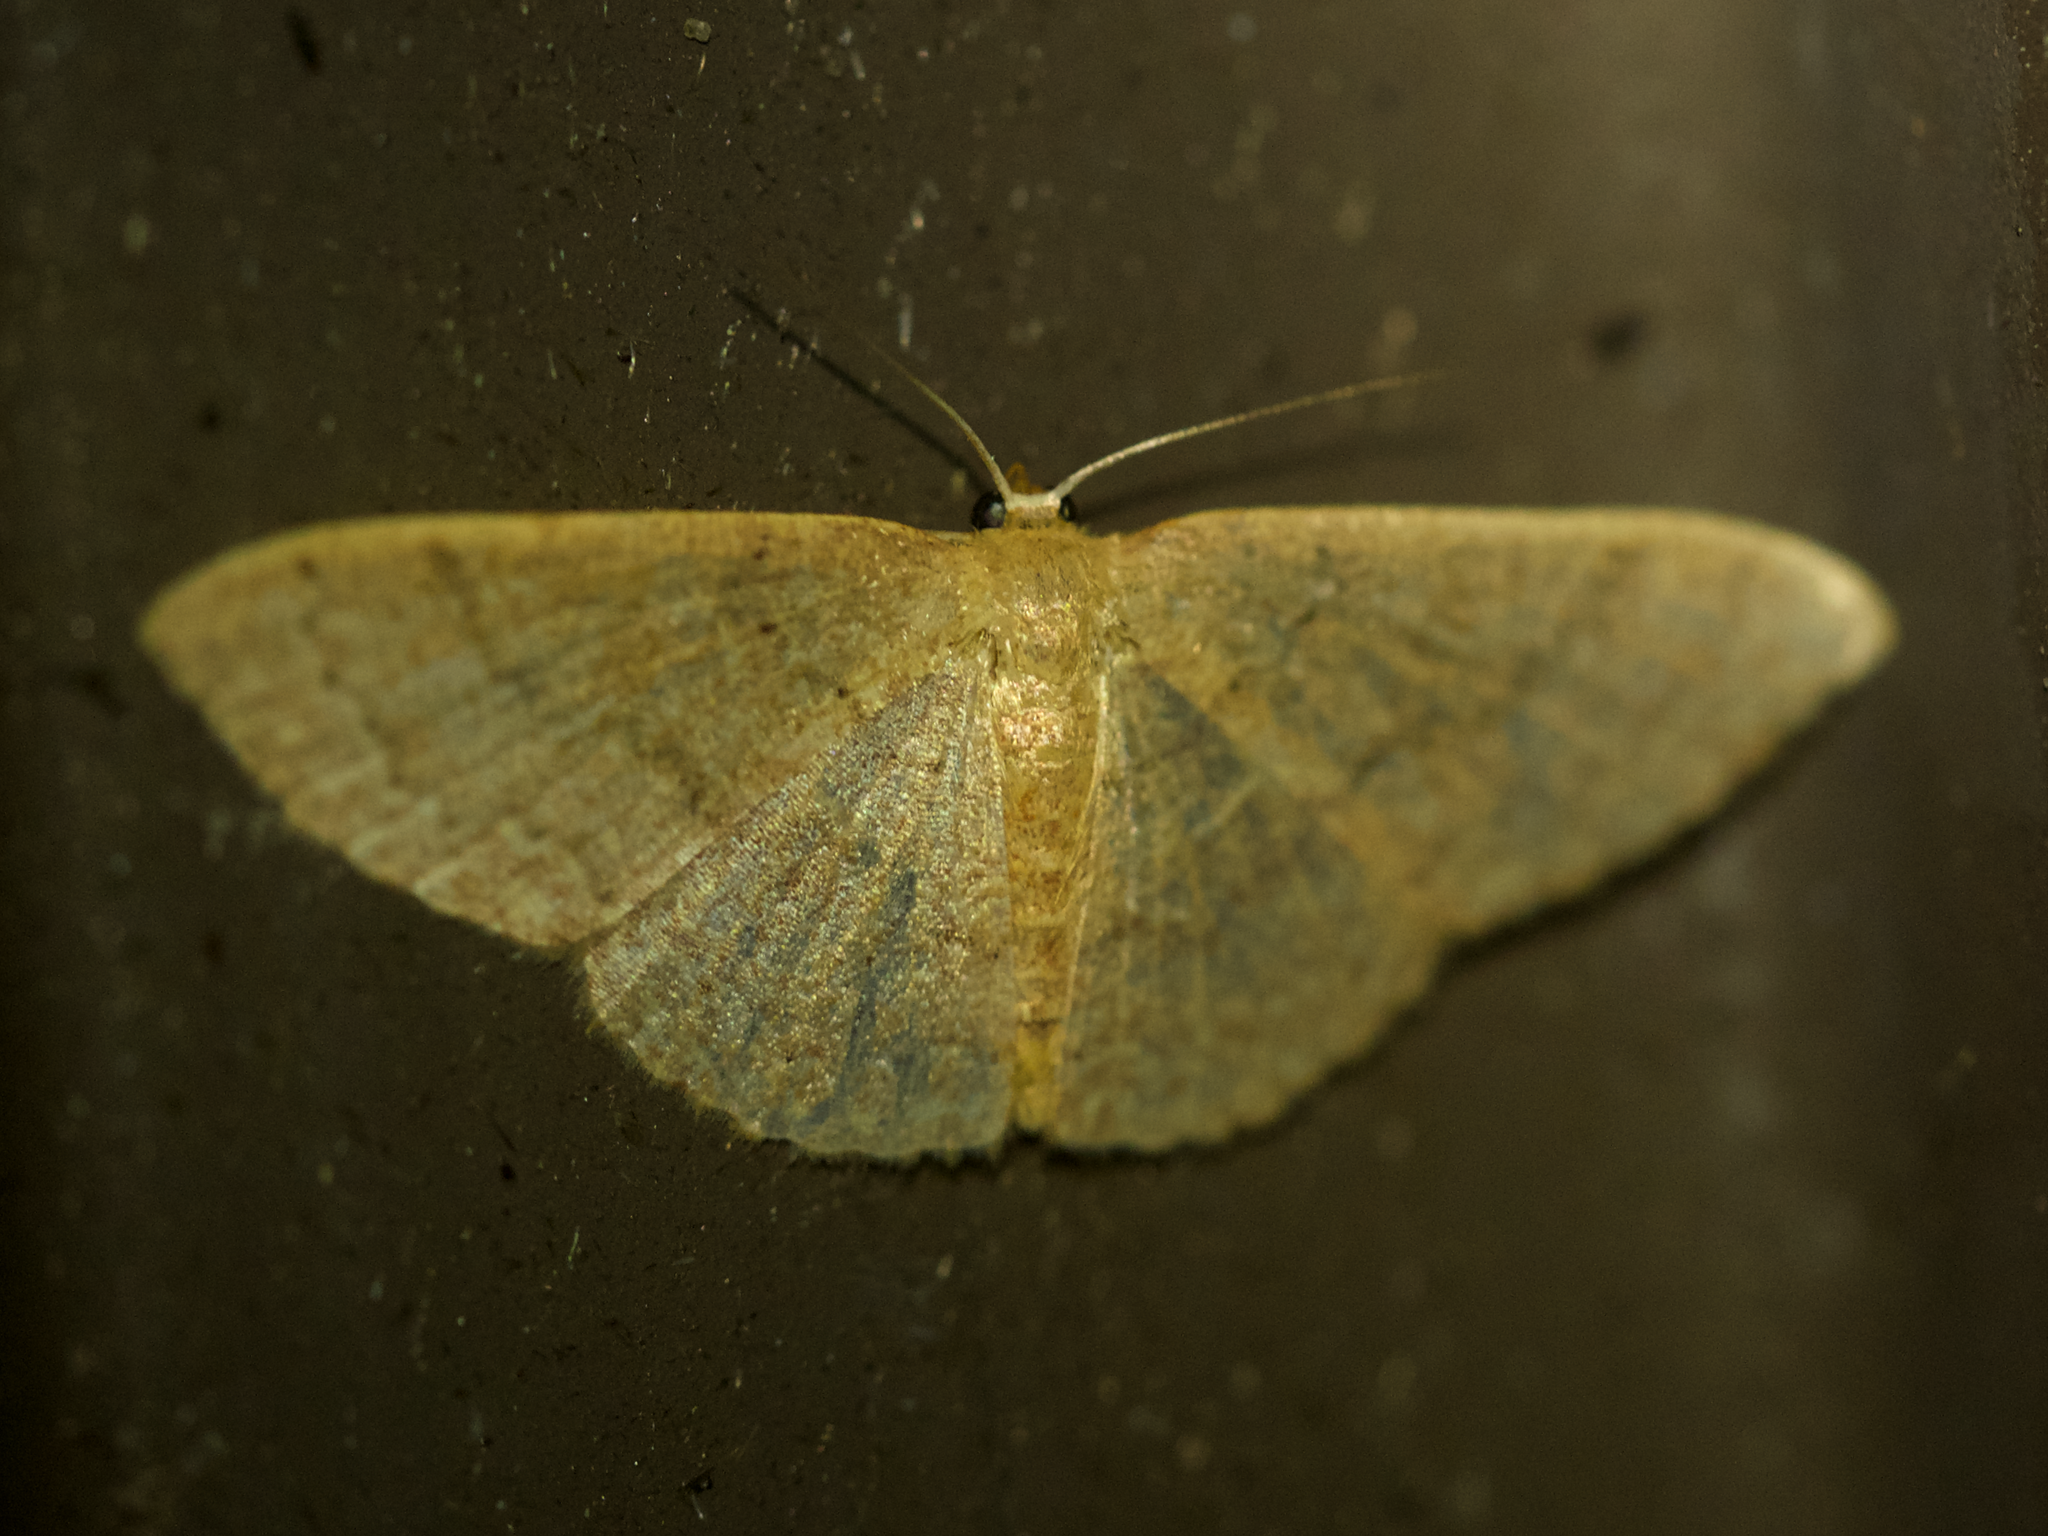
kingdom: Animalia
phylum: Arthropoda
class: Insecta
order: Lepidoptera
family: Geometridae
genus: Pleuroprucha
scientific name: Pleuroprucha insulsaria
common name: Common tan wave
